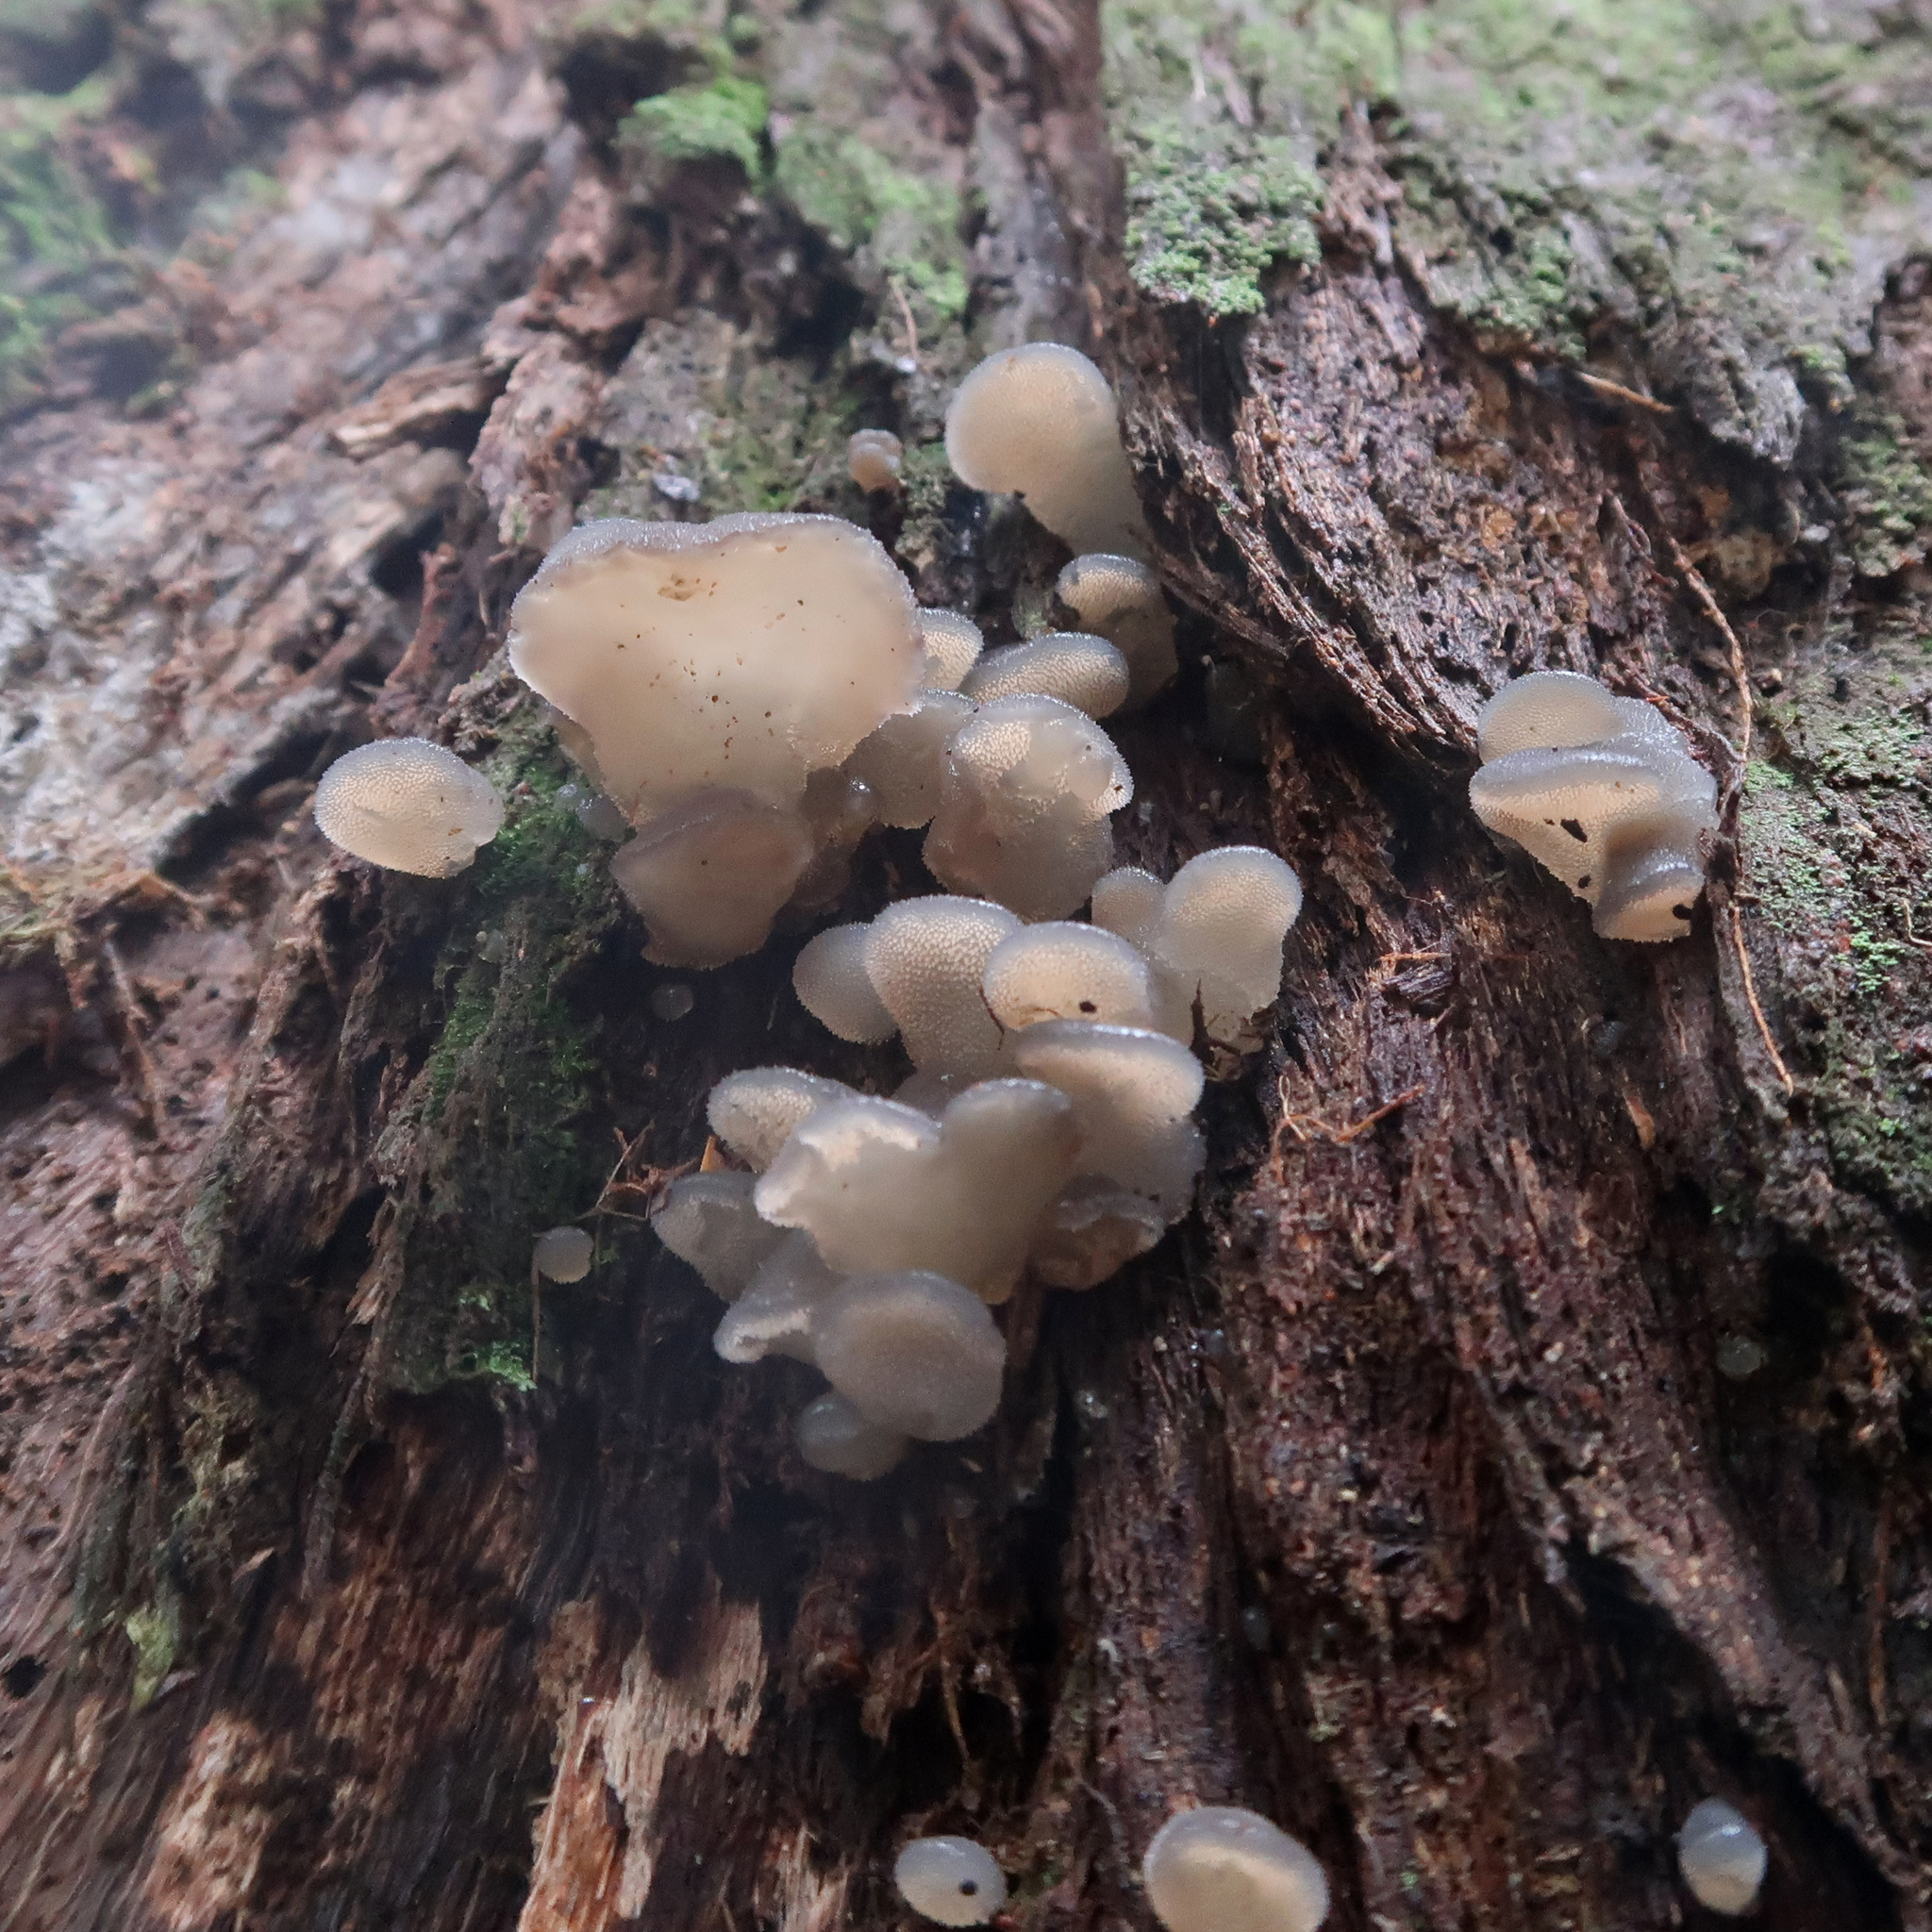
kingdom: Fungi
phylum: Basidiomycota
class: Agaricomycetes
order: Auriculariales
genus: Pseudohydnum
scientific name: Pseudohydnum gelatinosum
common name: Jelly tongue
